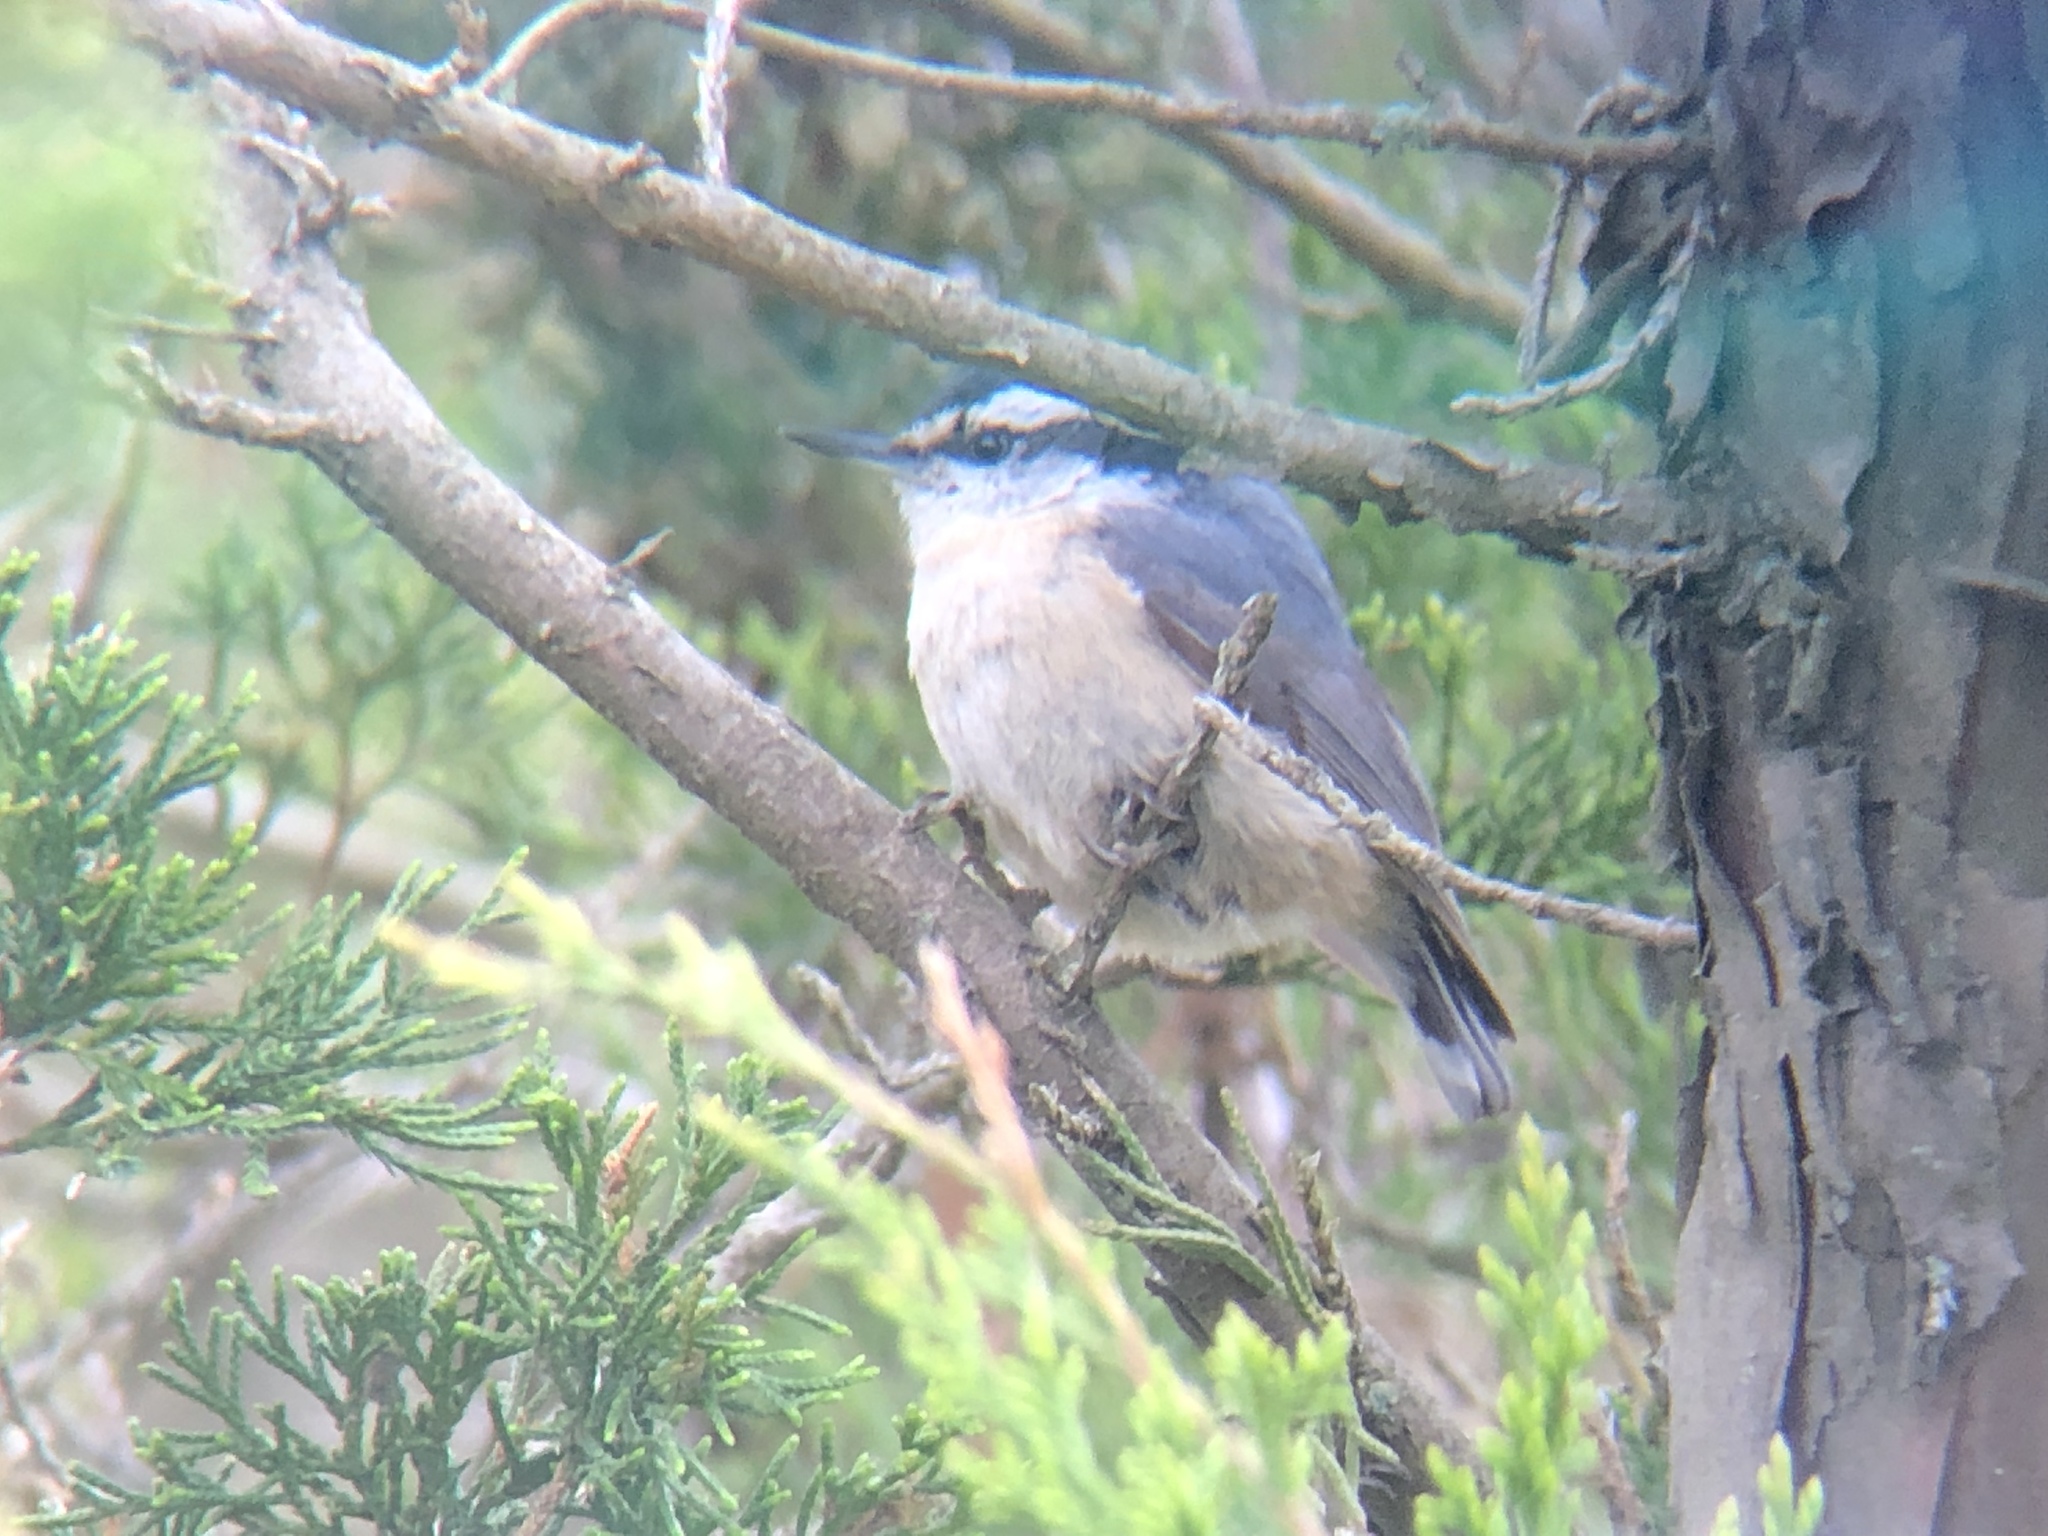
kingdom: Animalia
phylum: Chordata
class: Aves
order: Passeriformes
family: Sittidae
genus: Sitta
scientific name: Sitta canadensis
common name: Red-breasted nuthatch
